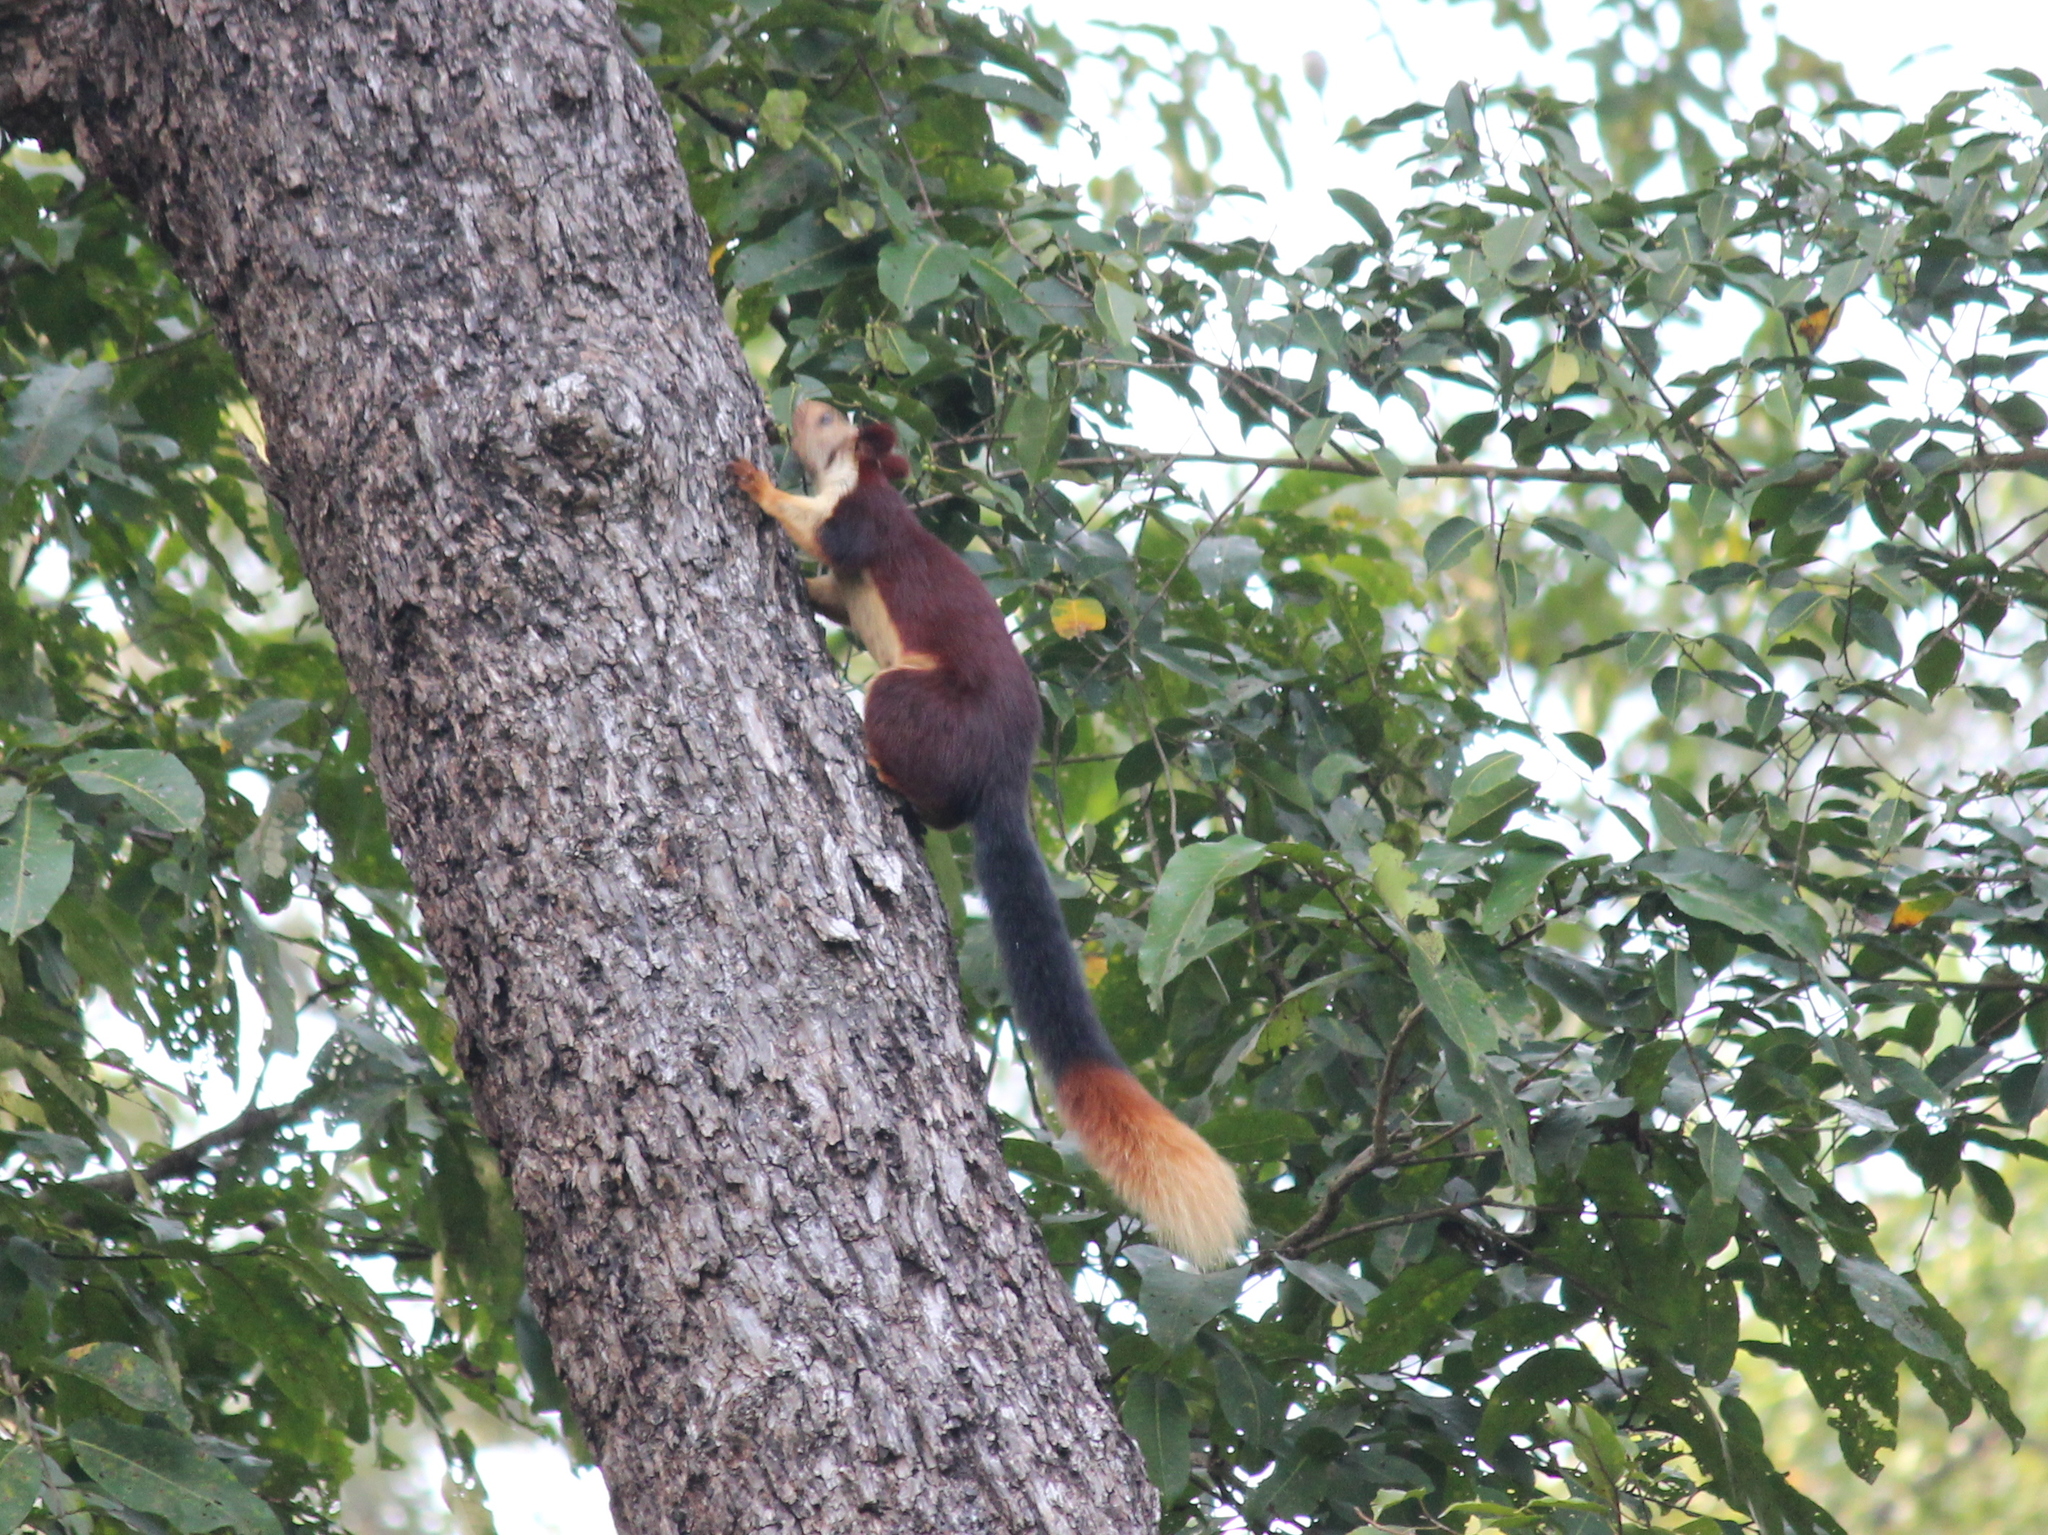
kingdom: Animalia
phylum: Chordata
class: Mammalia
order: Rodentia
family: Sciuridae
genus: Ratufa
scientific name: Ratufa indica
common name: Indian giant squirrel
